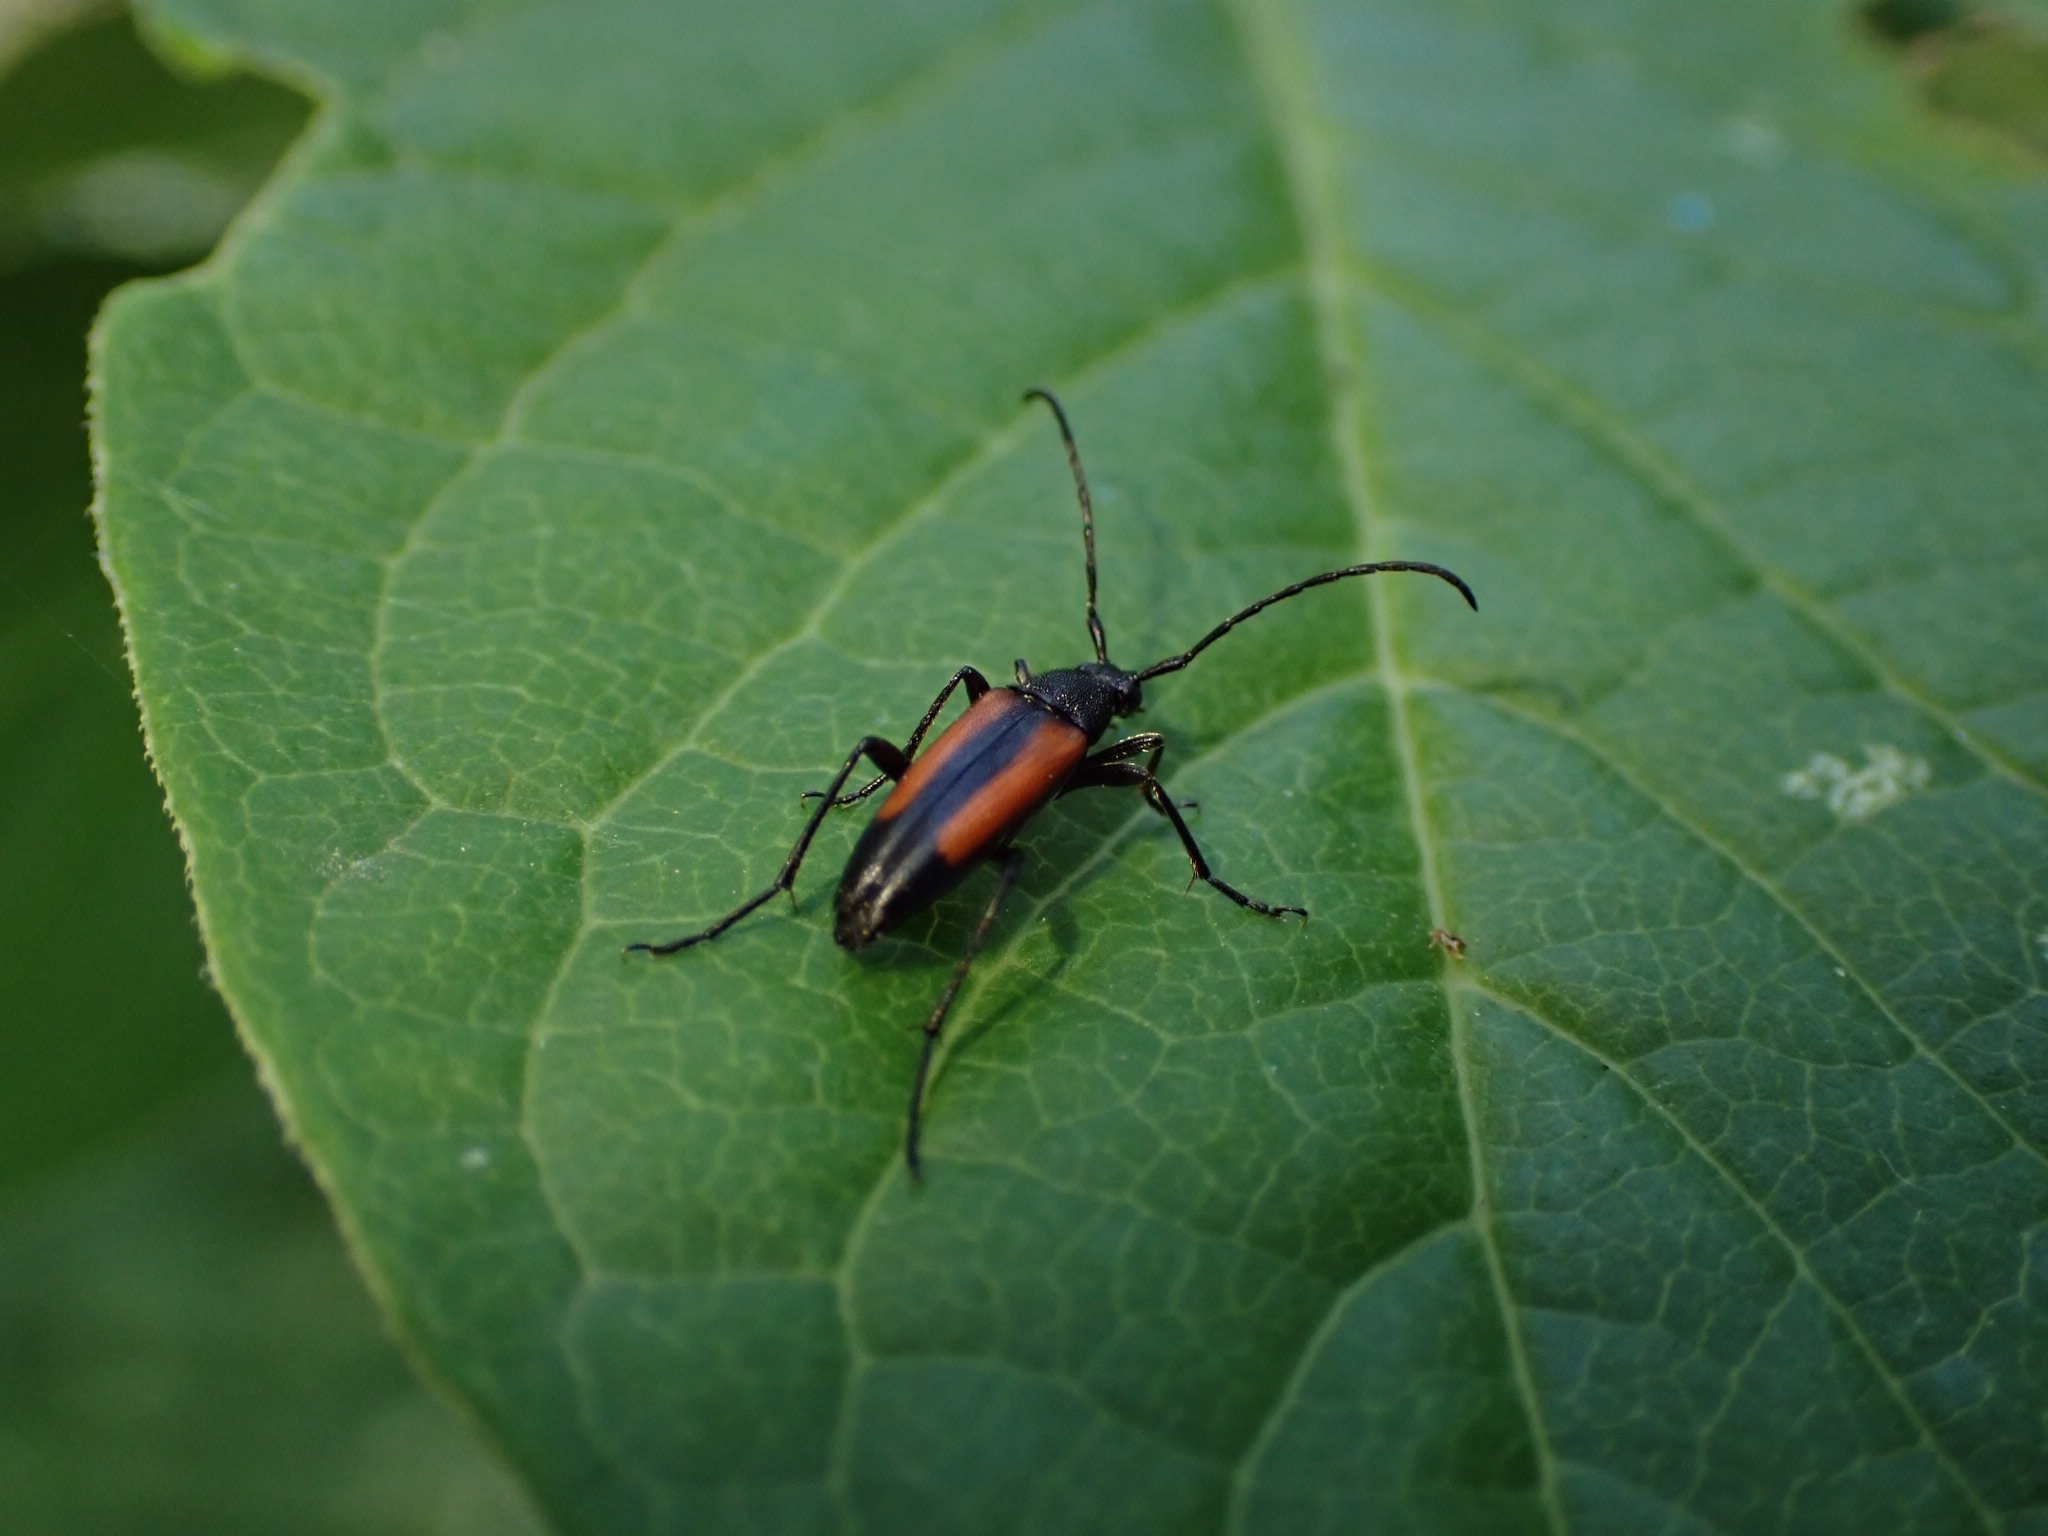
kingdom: Animalia
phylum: Arthropoda
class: Insecta
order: Coleoptera
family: Cerambycidae
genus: Stenurella
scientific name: Stenurella melanura
